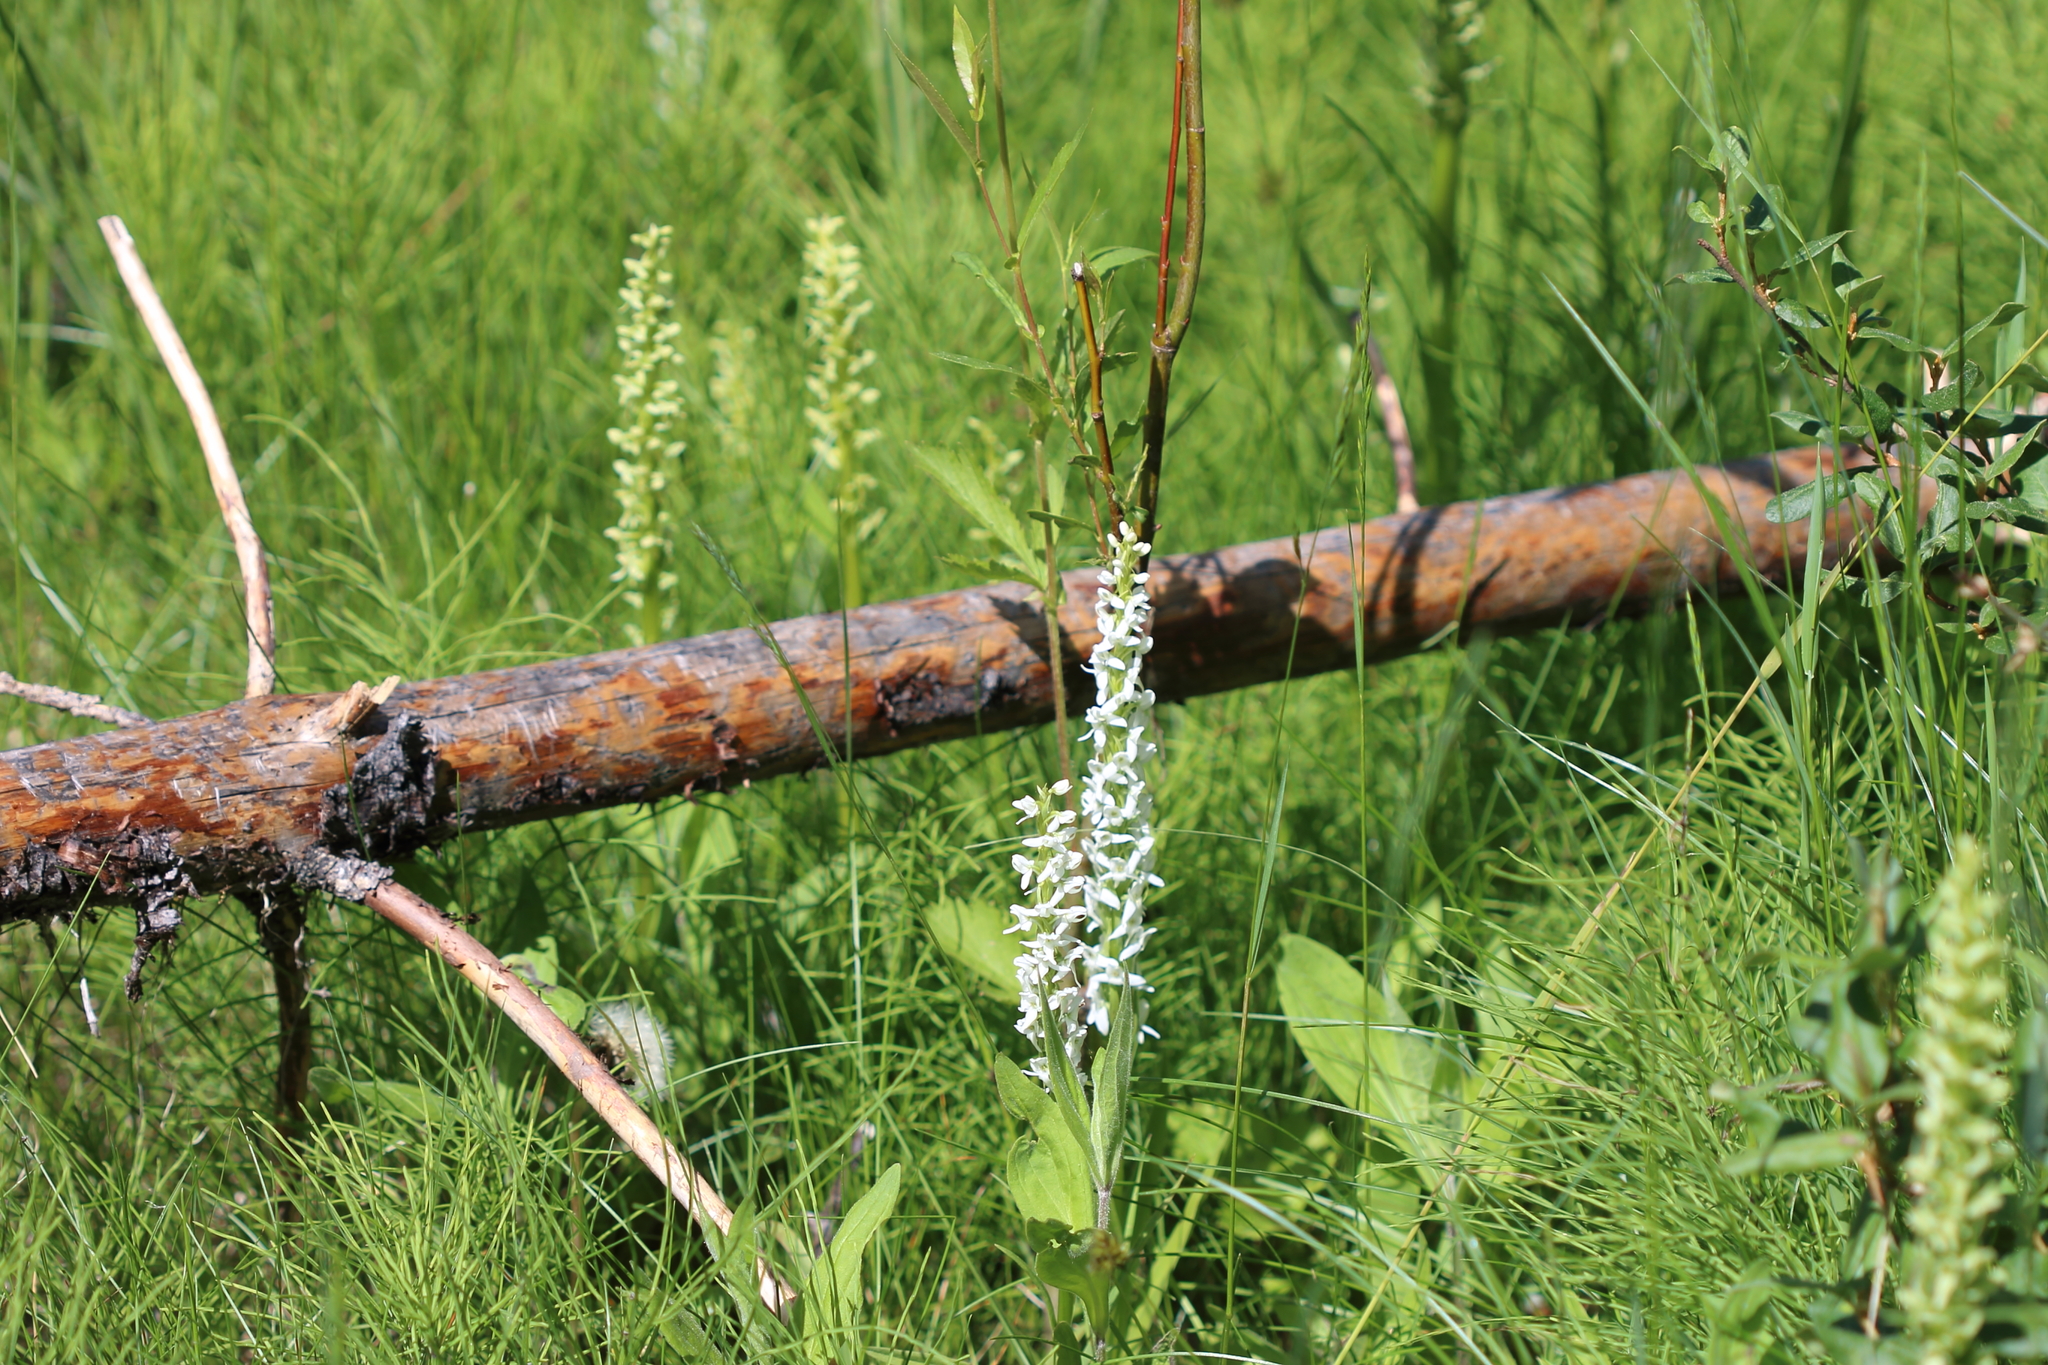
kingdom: Plantae
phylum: Tracheophyta
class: Liliopsida
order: Asparagales
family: Orchidaceae
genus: Platanthera
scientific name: Platanthera dilatata
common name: Bog candles
